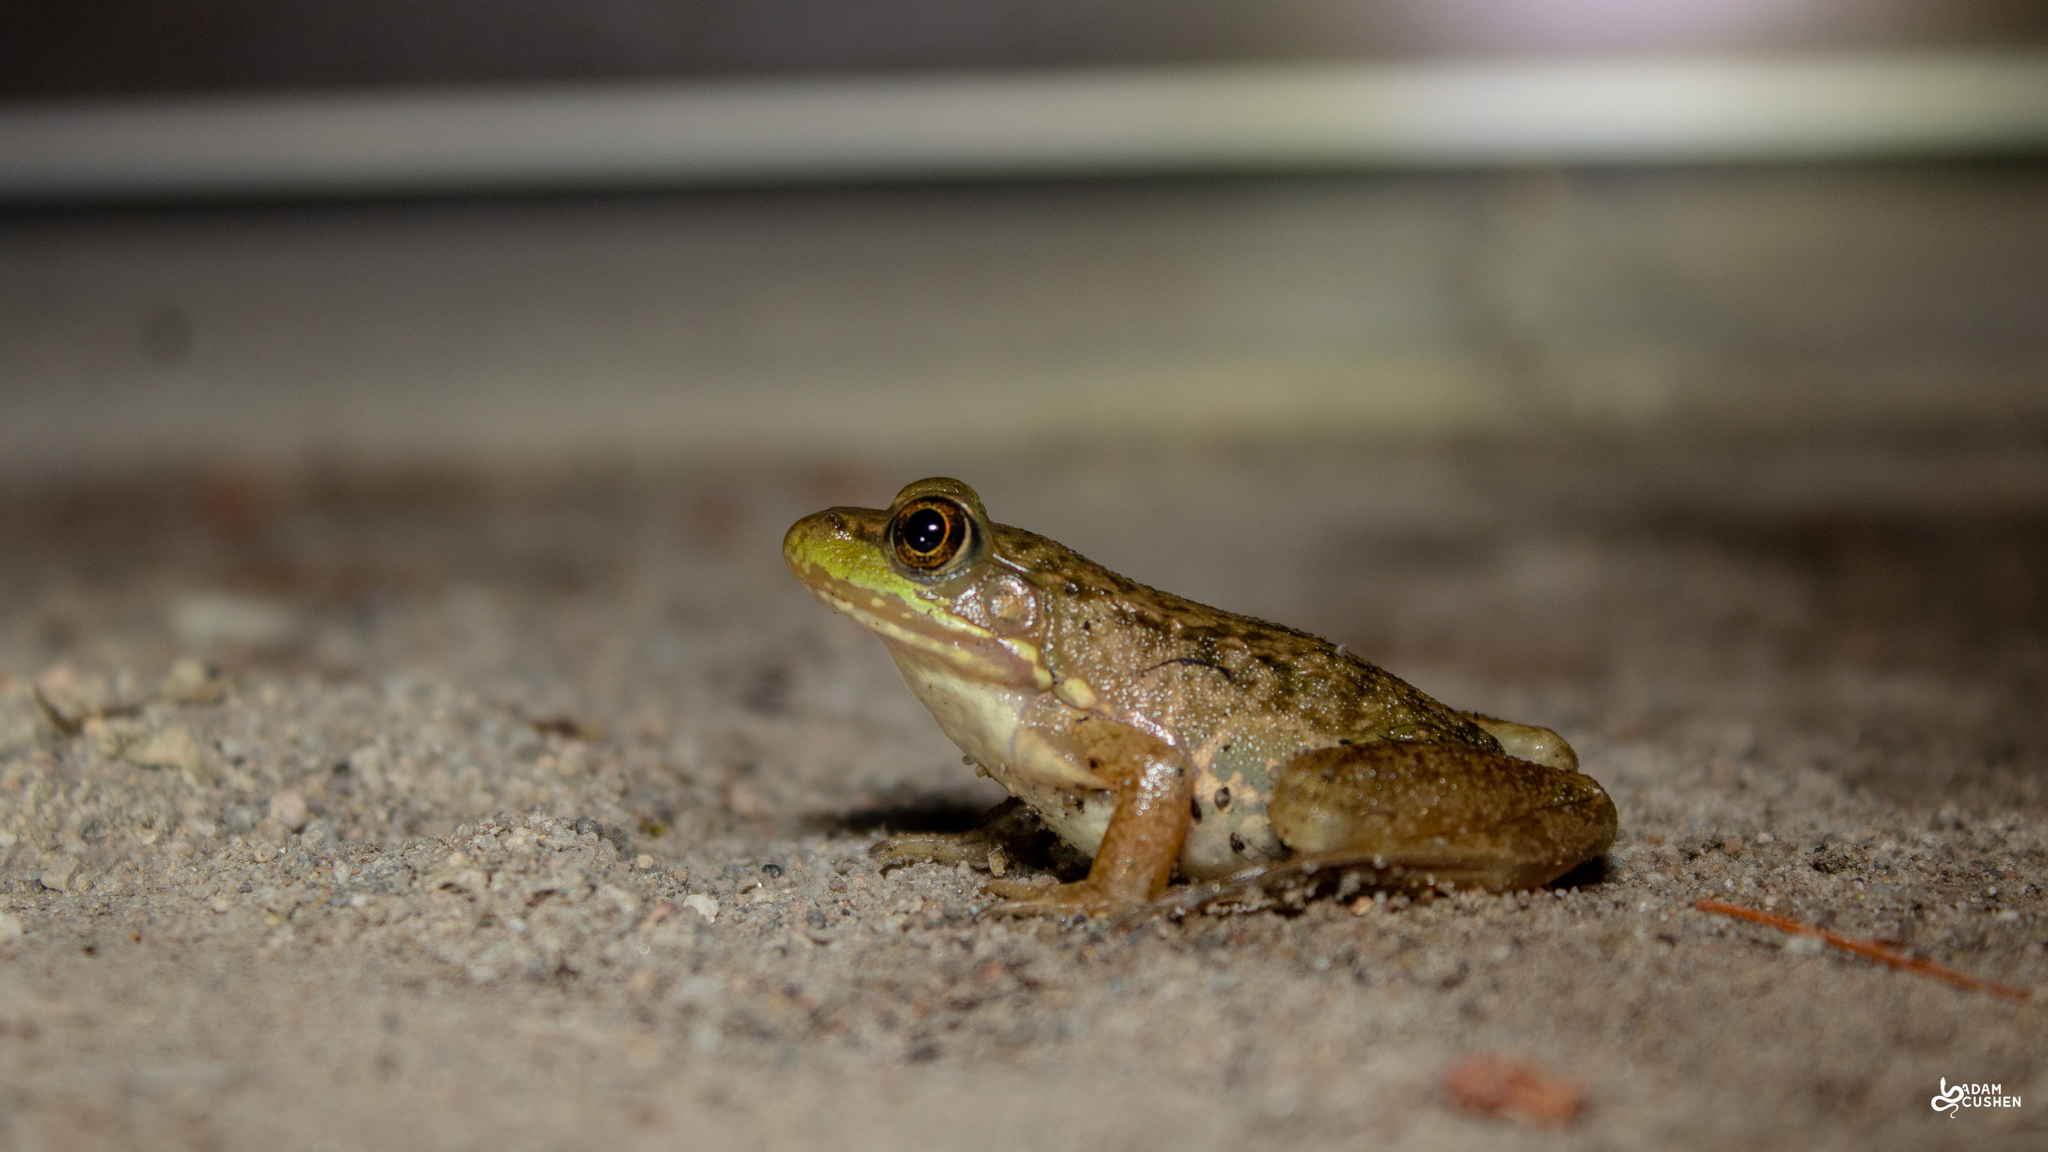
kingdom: Animalia
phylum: Chordata
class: Amphibia
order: Anura
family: Ranidae
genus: Lithobates
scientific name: Lithobates clamitans
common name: Green frog
